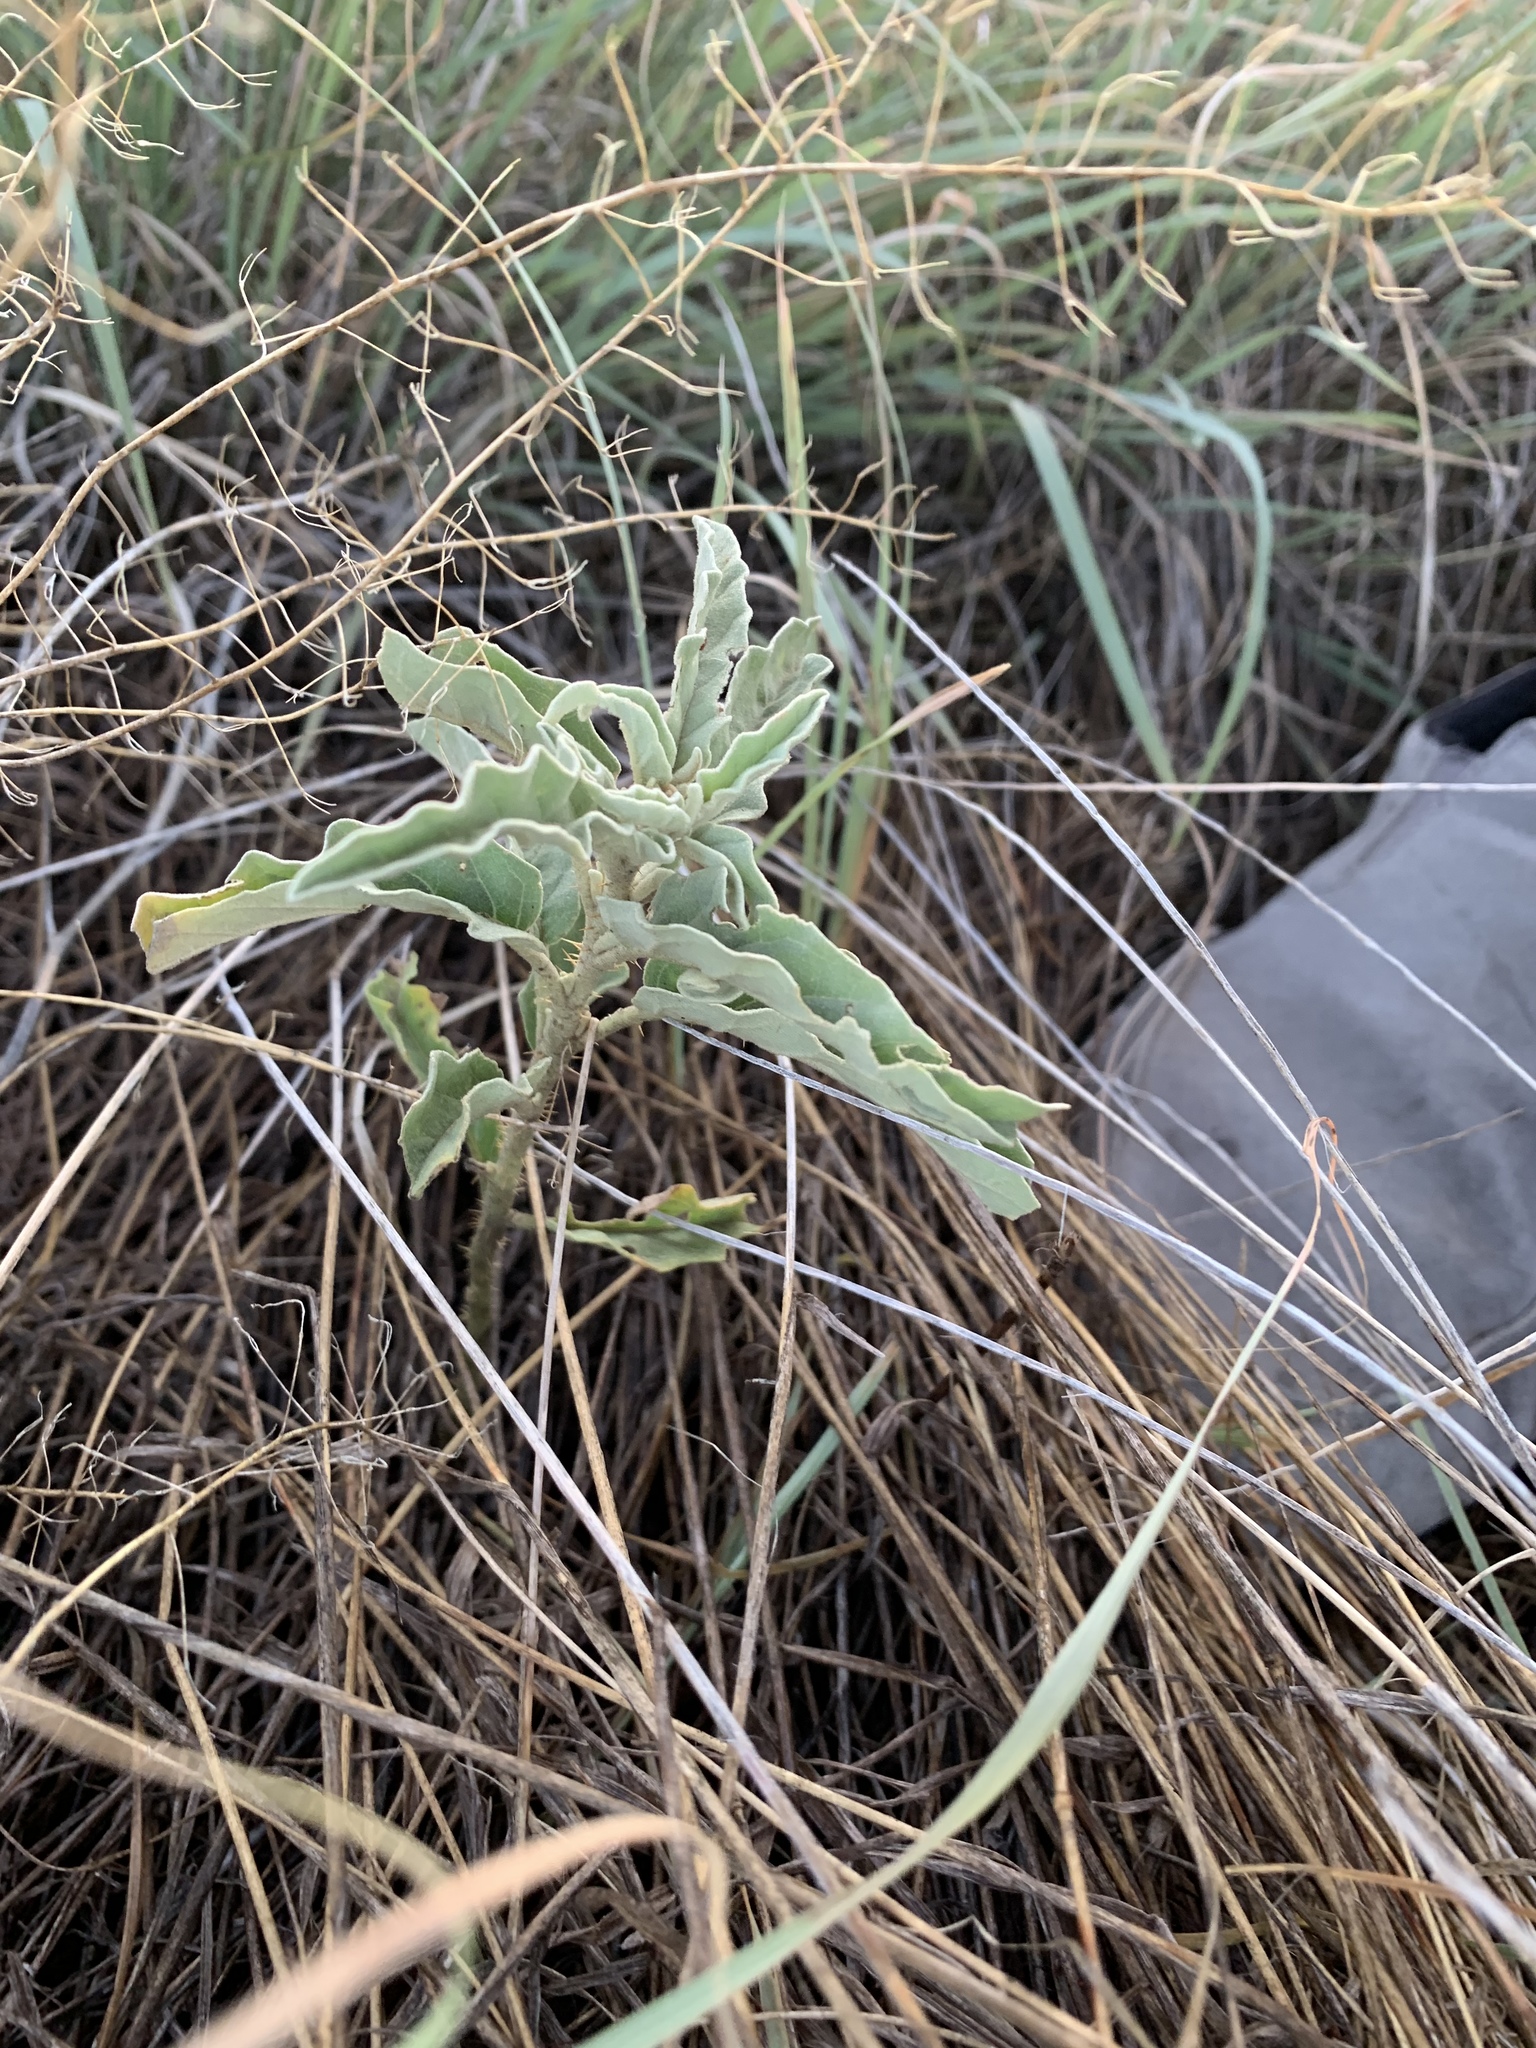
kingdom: Plantae
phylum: Tracheophyta
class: Magnoliopsida
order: Solanales
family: Solanaceae
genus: Solanum
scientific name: Solanum elaeagnifolium
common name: Silverleaf nightshade
